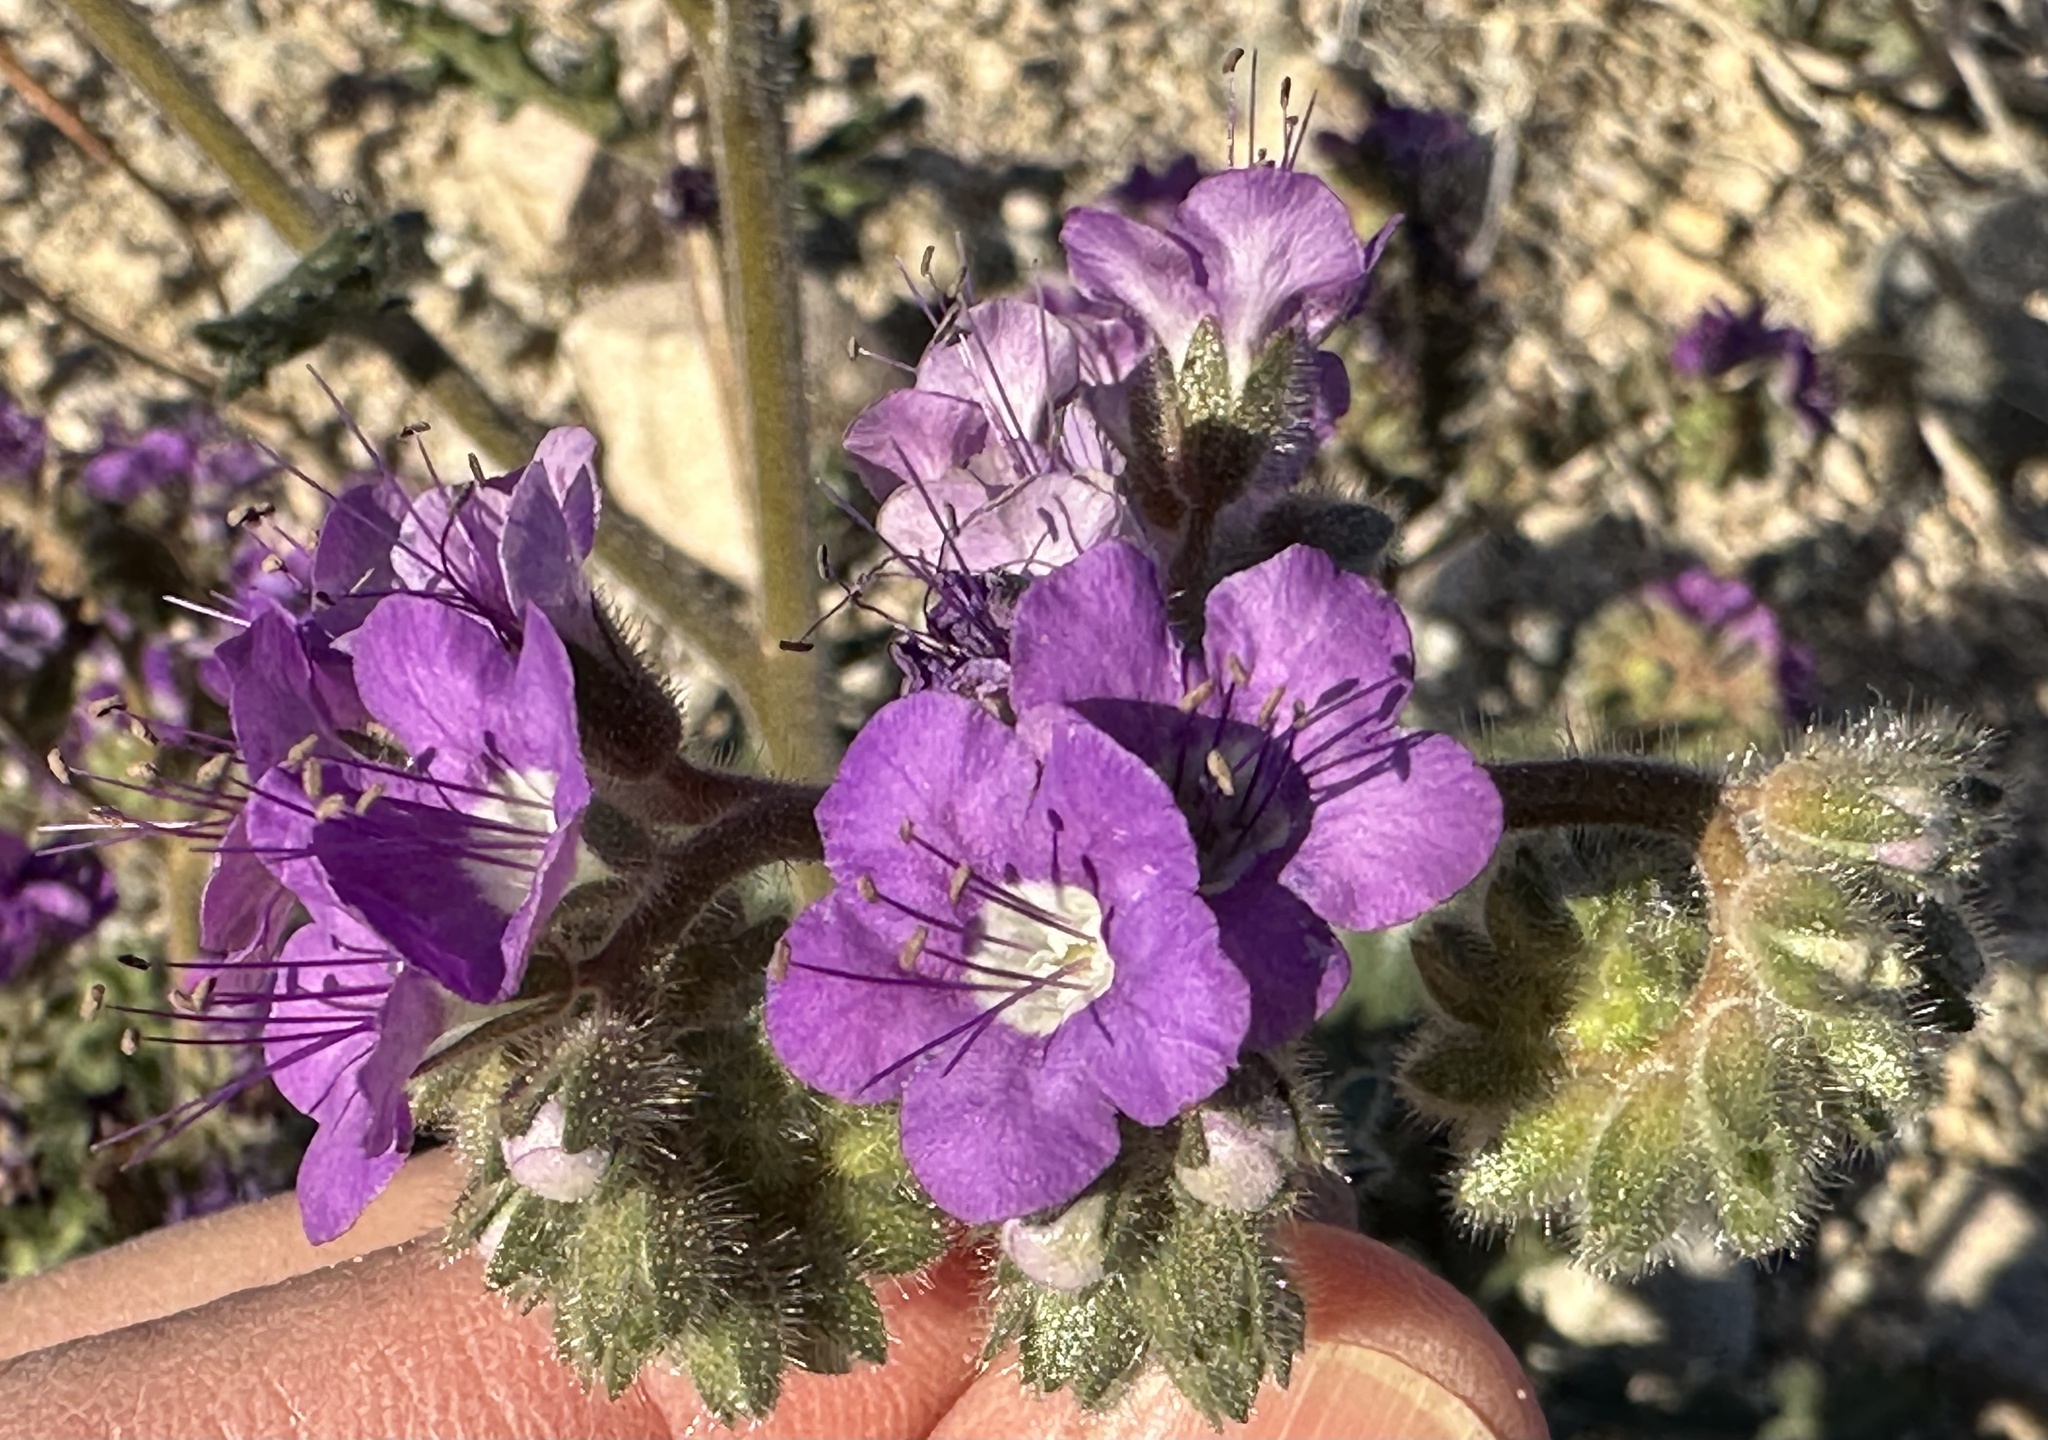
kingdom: Plantae
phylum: Tracheophyta
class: Magnoliopsida
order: Boraginales
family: Hydrophyllaceae
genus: Phacelia
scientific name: Phacelia crenulata
